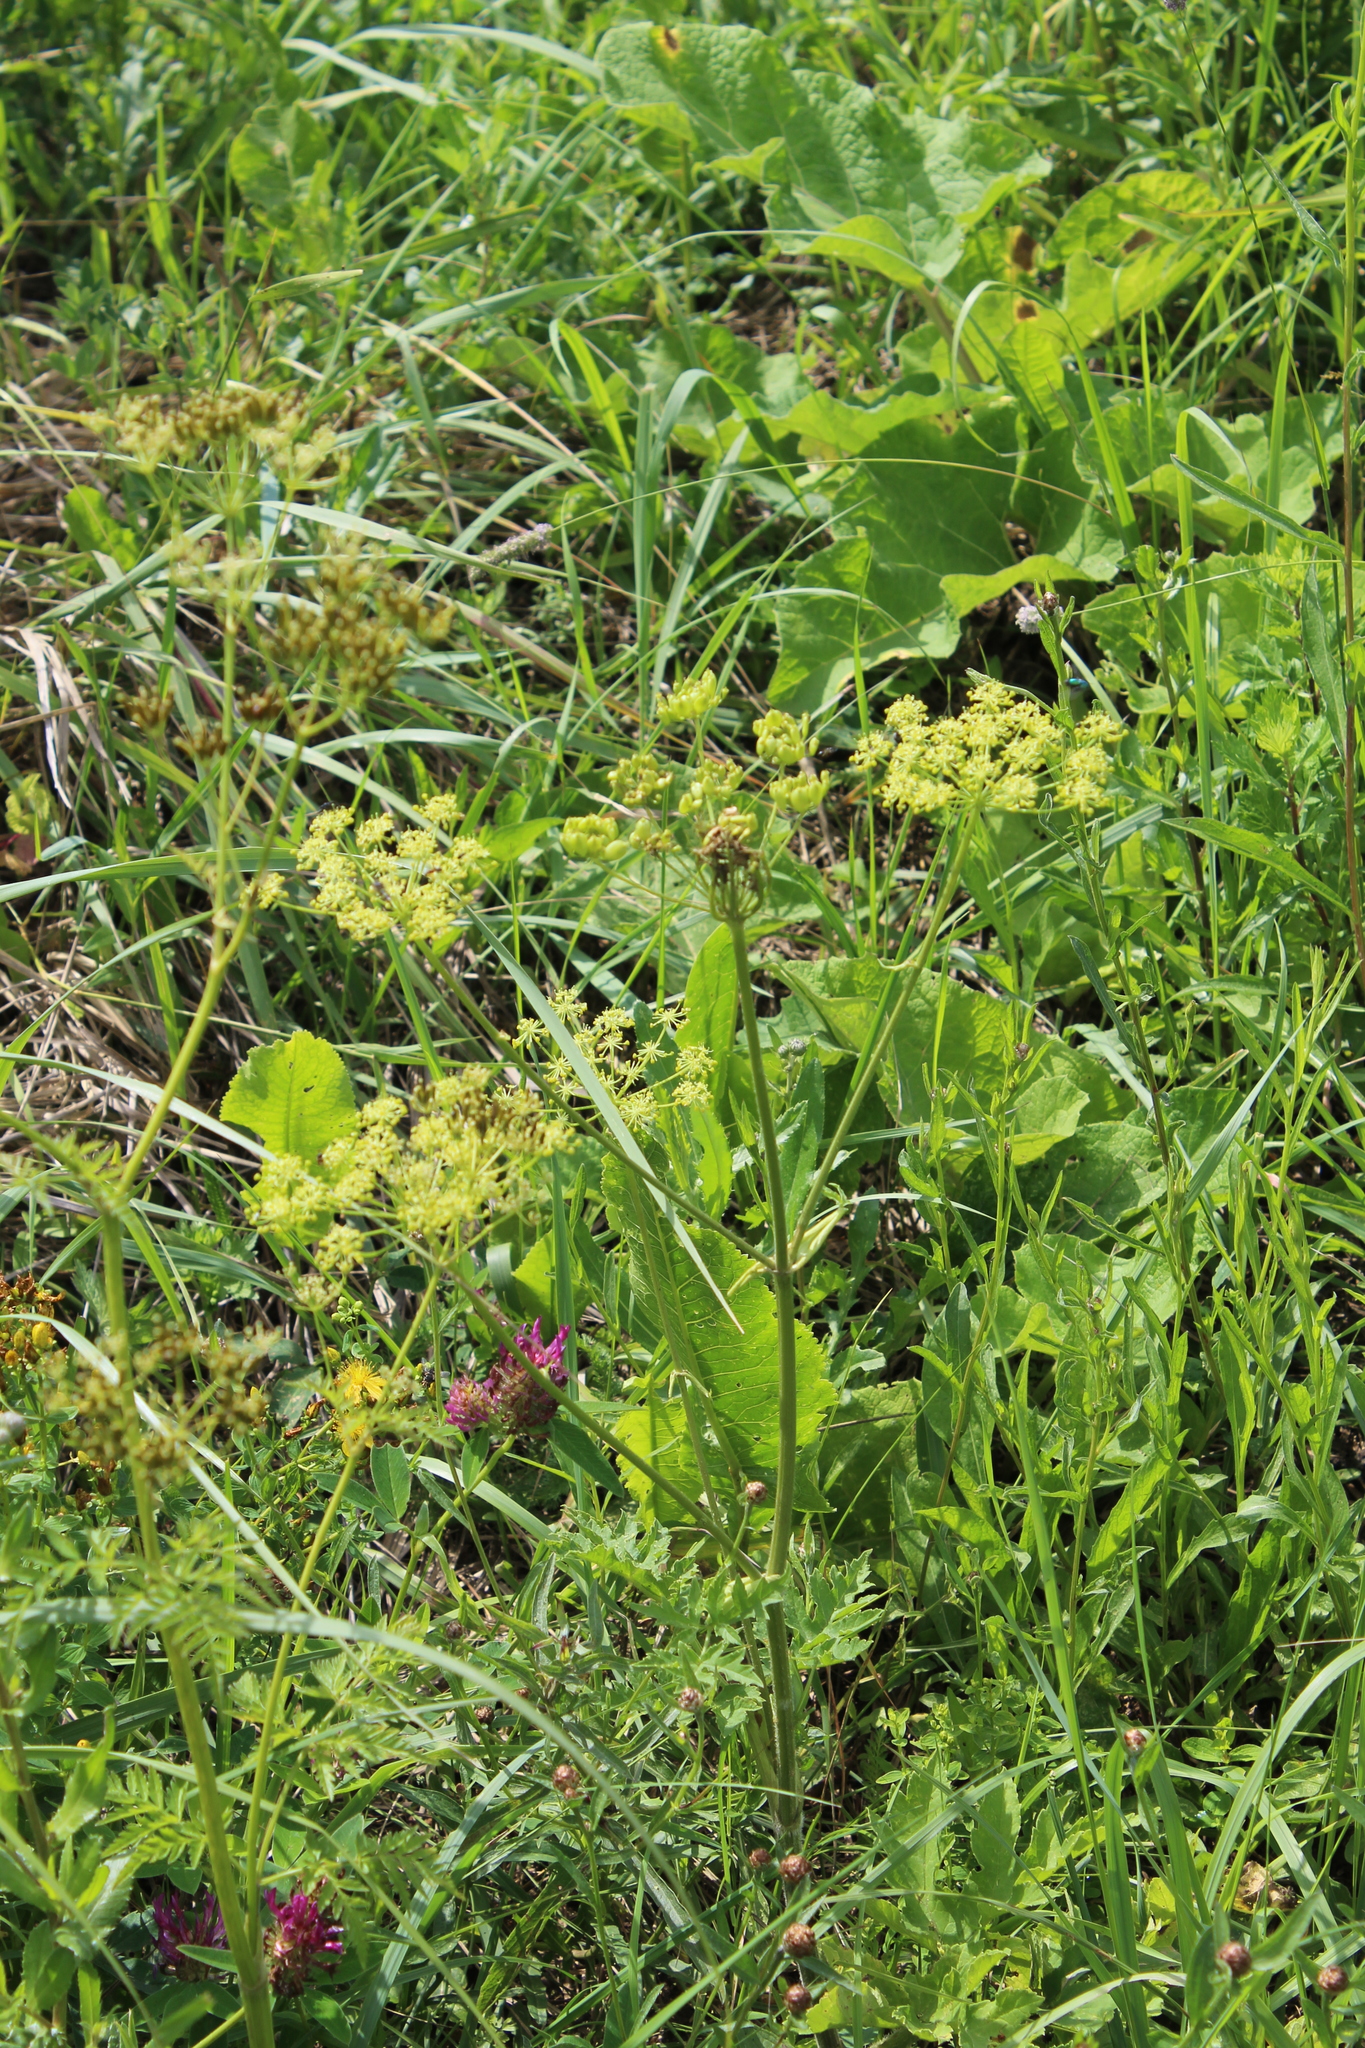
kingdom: Plantae
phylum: Tracheophyta
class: Magnoliopsida
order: Apiales
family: Apiaceae
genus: Heracleum
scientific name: Heracleum sphondylium
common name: Hogweed
